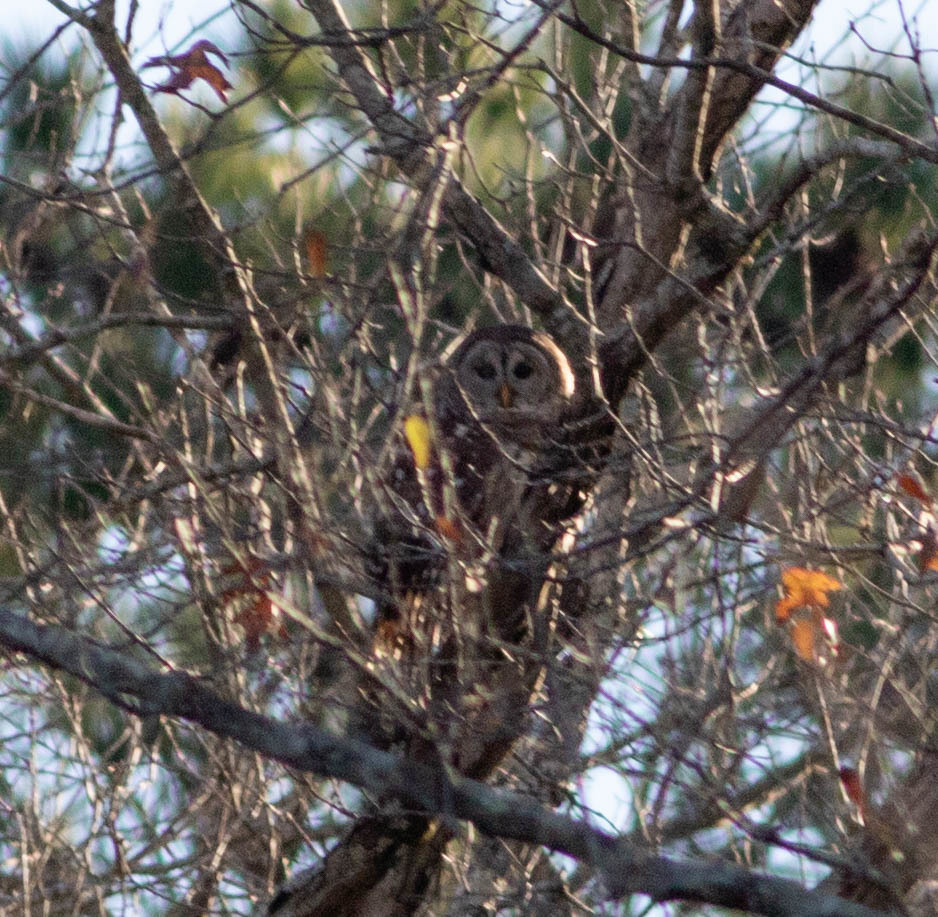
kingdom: Animalia
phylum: Chordata
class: Aves
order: Strigiformes
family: Strigidae
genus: Strix
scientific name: Strix varia
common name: Barred owl
